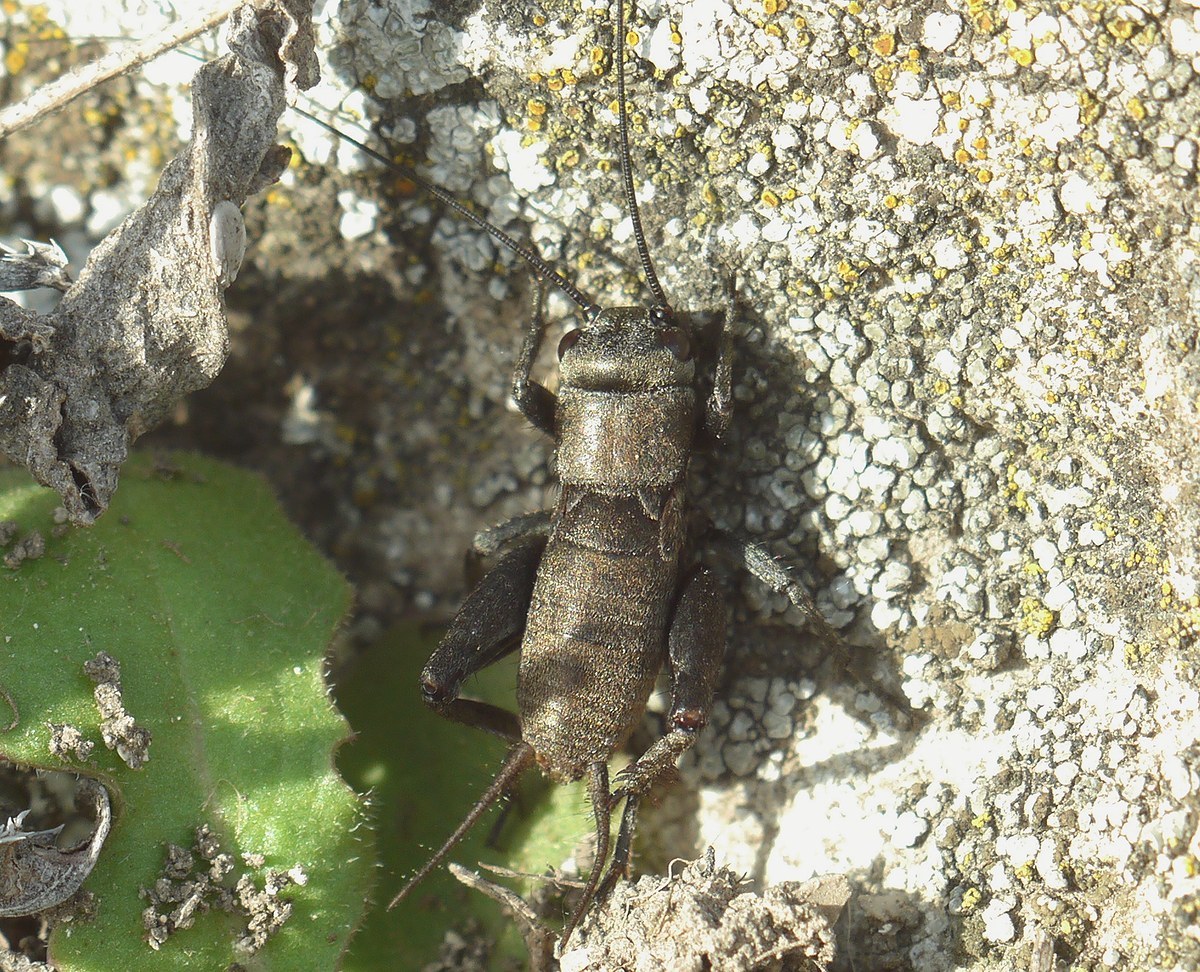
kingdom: Animalia
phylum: Arthropoda
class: Insecta
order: Orthoptera
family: Gryllidae
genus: Melanogryllus
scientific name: Melanogryllus desertus
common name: Desert cricket
